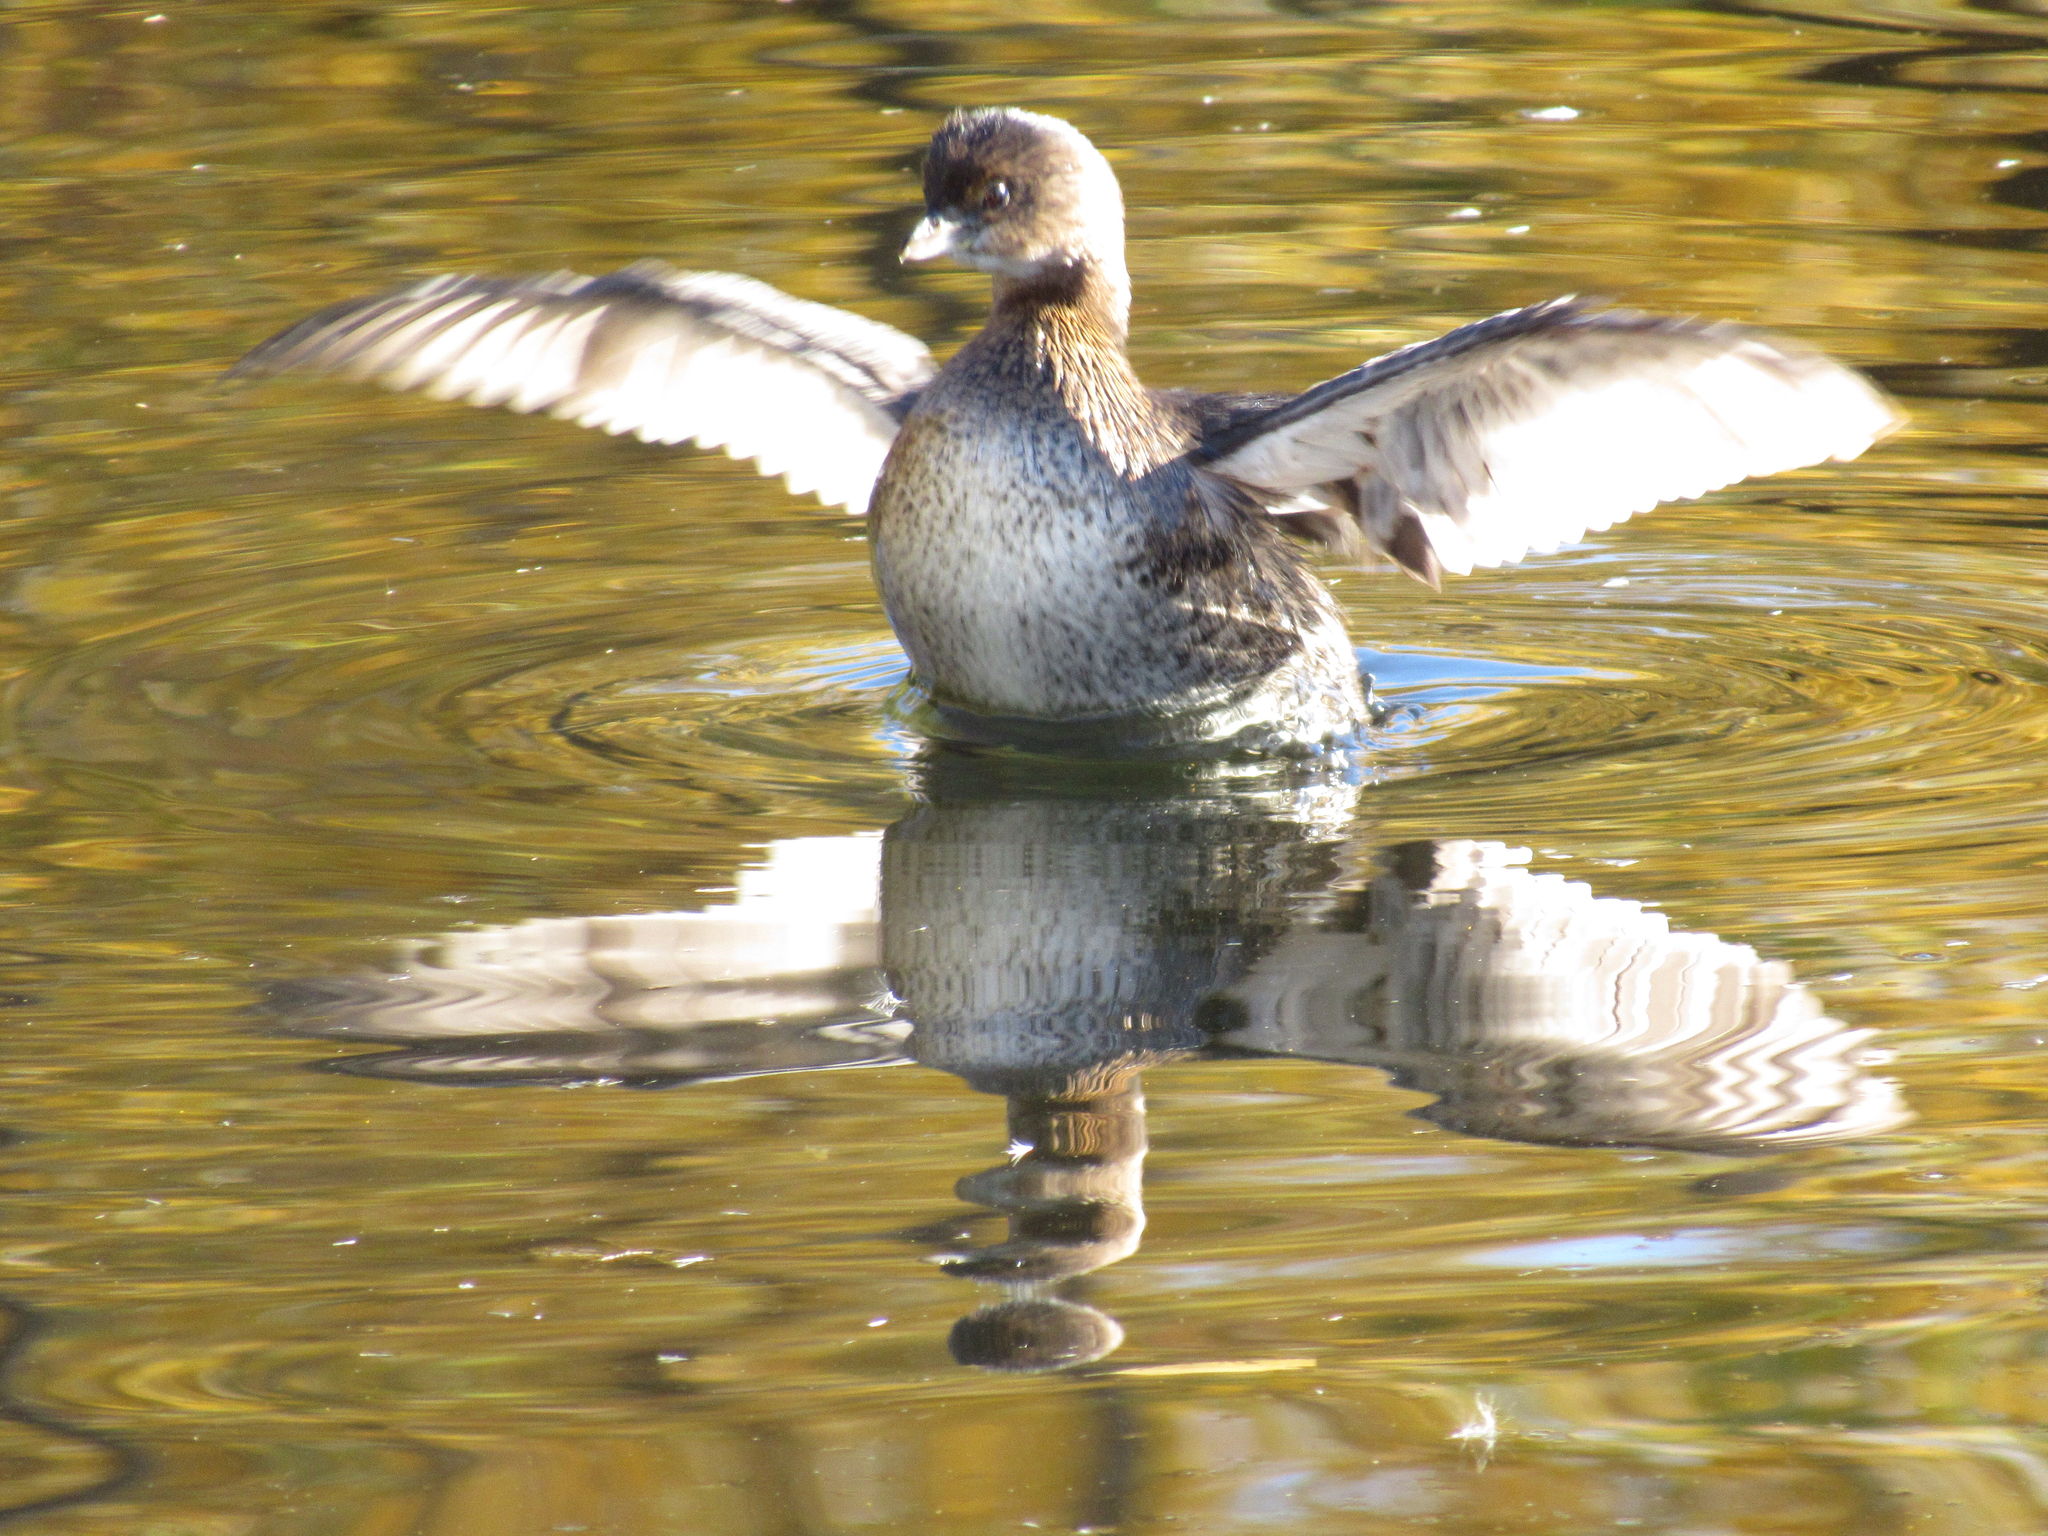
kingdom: Animalia
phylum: Chordata
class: Aves
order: Podicipediformes
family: Podicipedidae
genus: Podilymbus
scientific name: Podilymbus podiceps
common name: Pied-billed grebe
